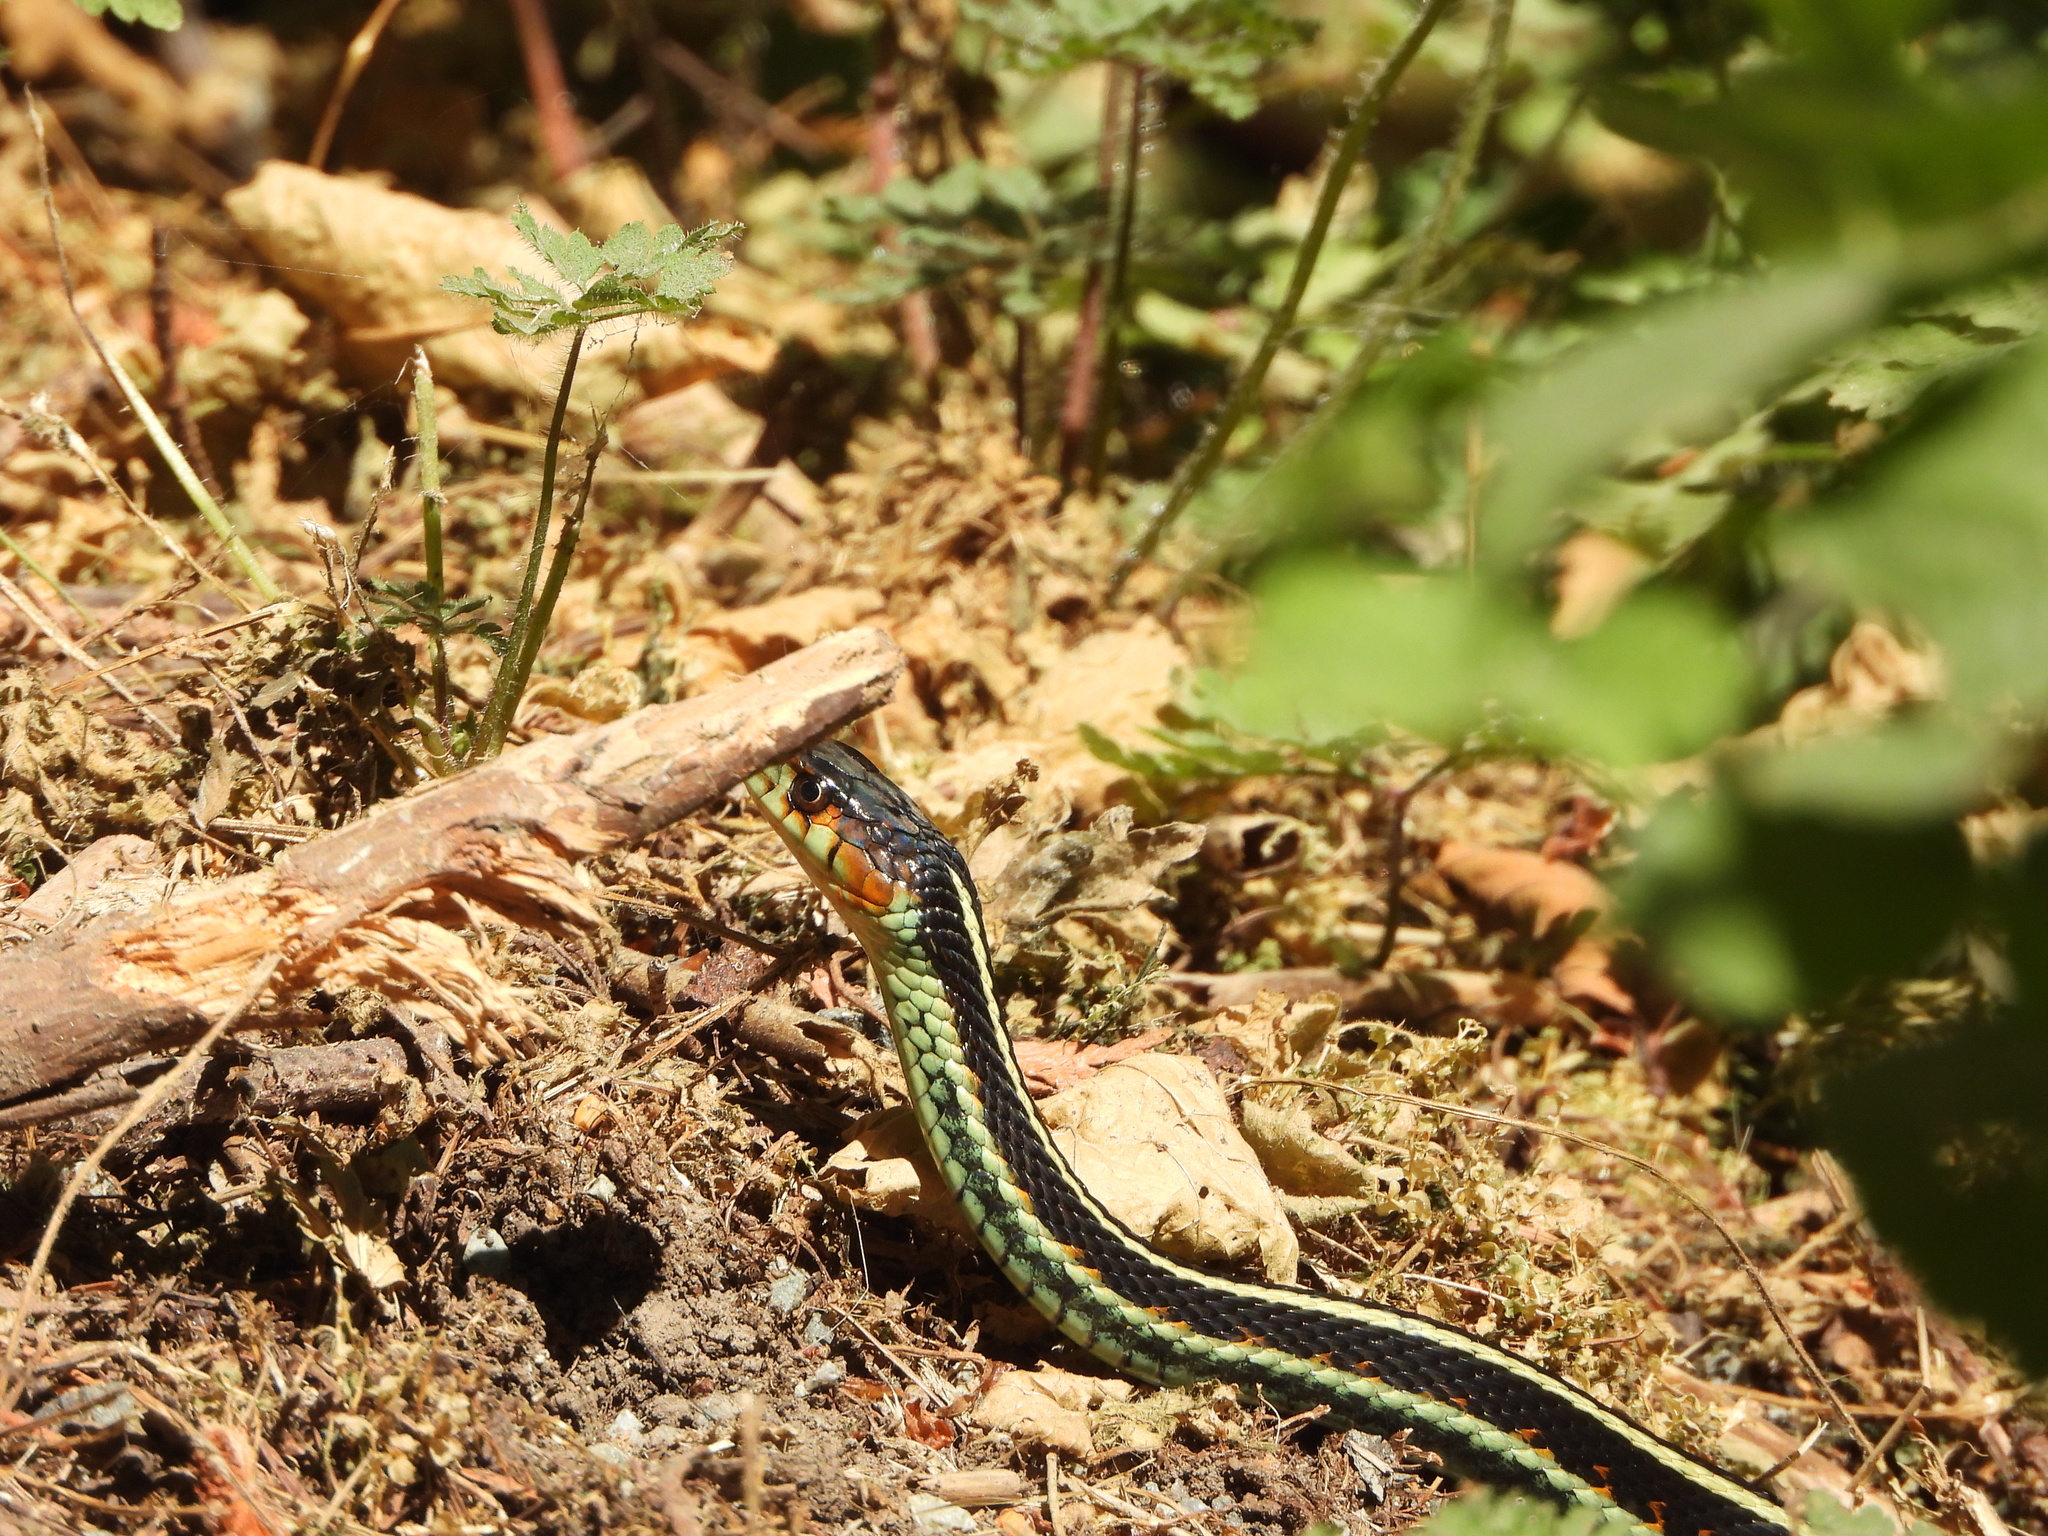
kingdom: Animalia
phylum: Chordata
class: Squamata
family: Colubridae
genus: Thamnophis
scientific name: Thamnophis sirtalis
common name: Common garter snake
